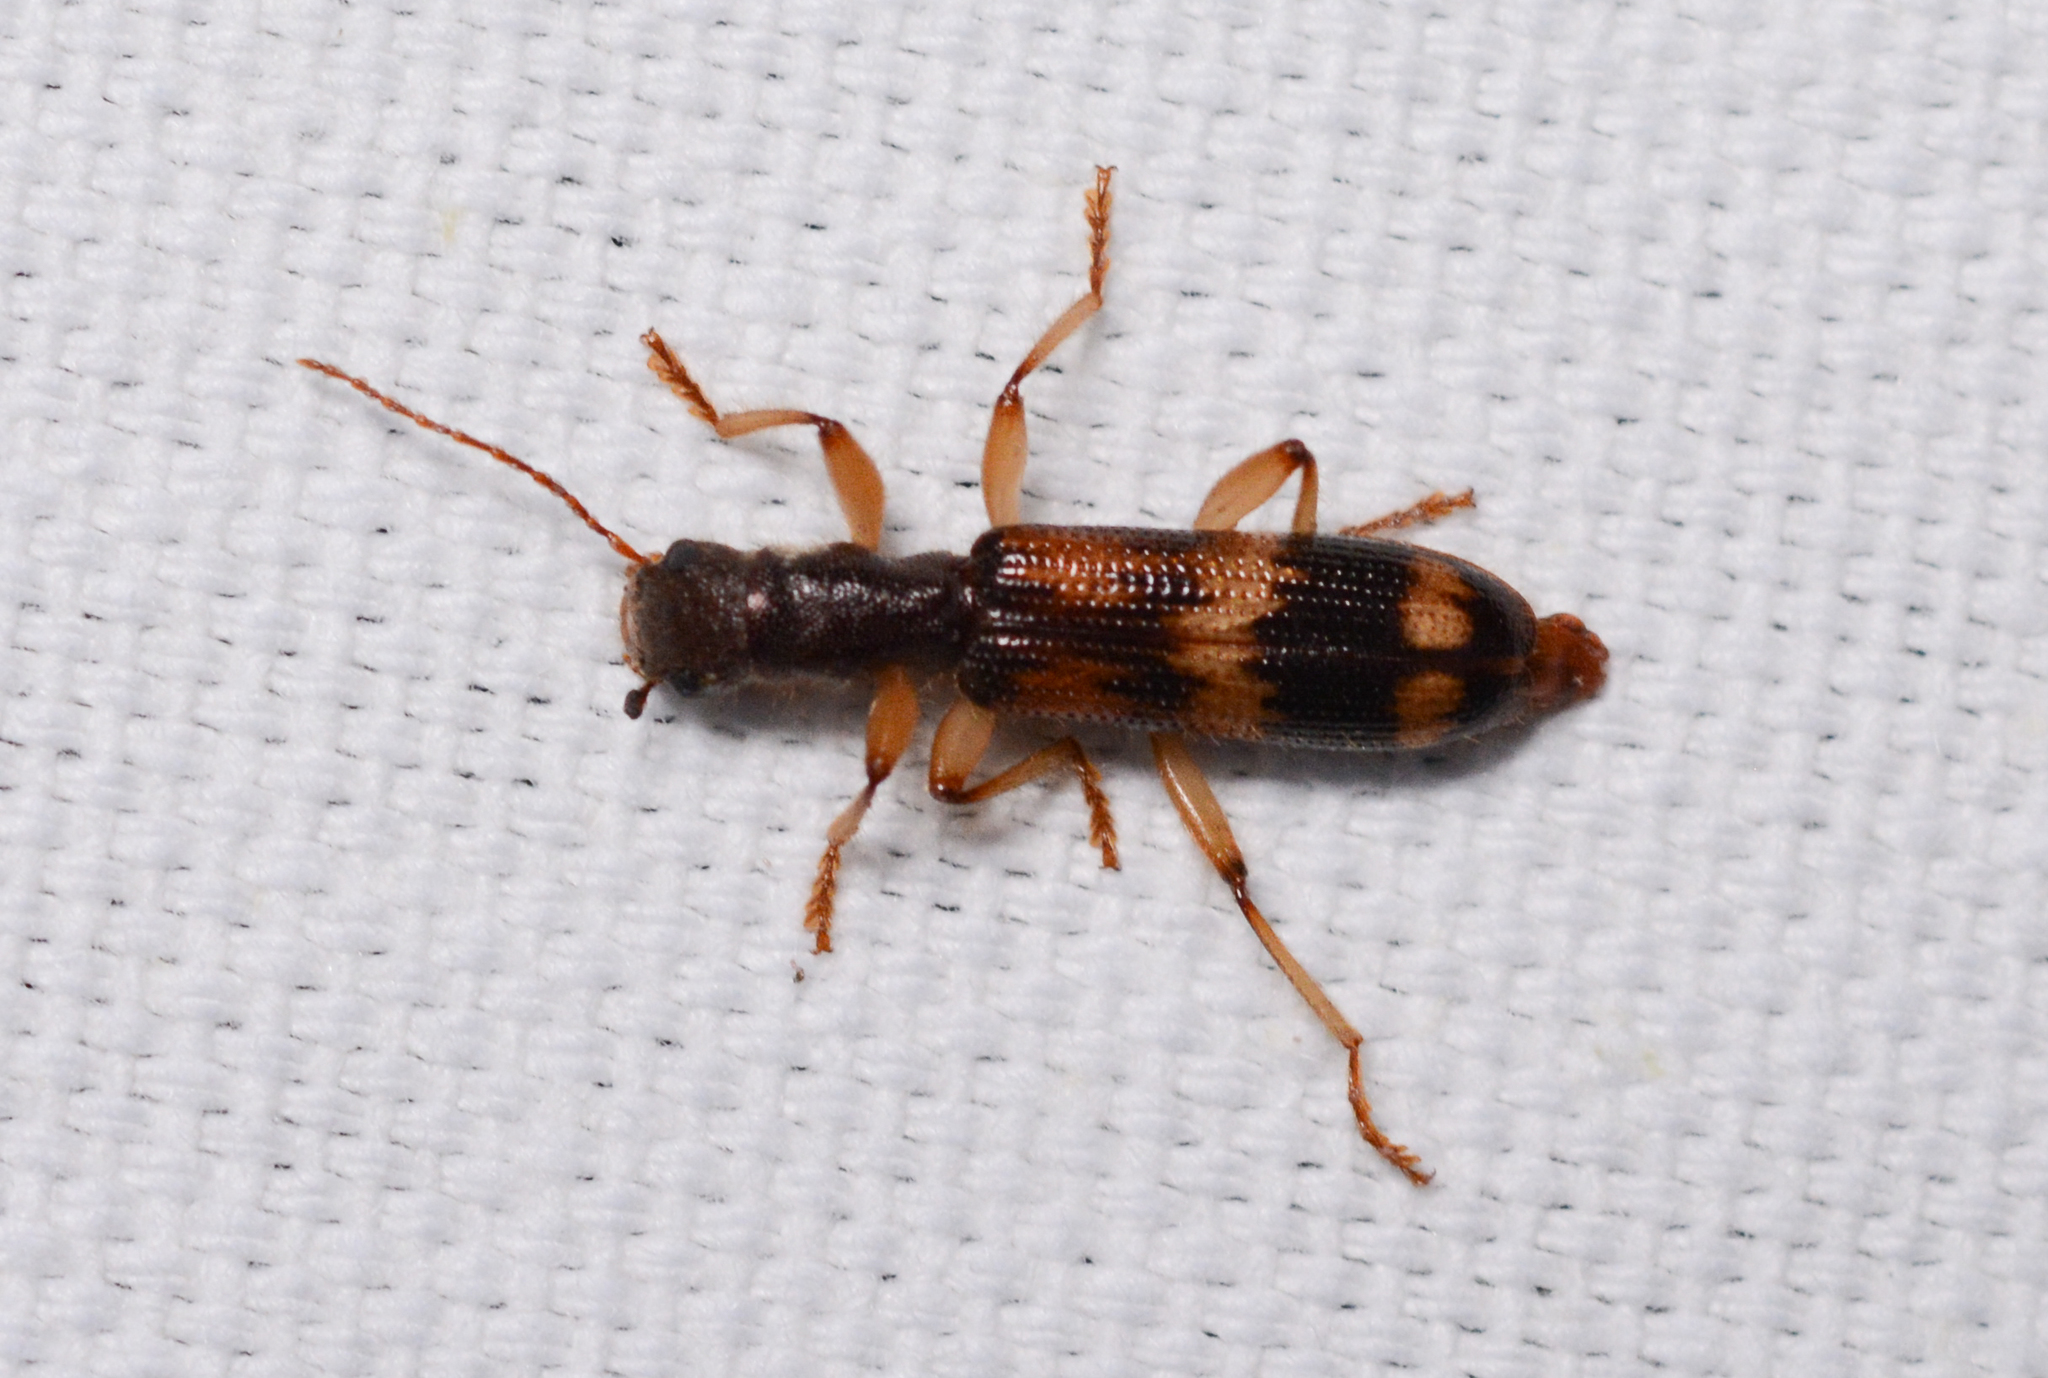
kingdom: Animalia
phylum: Arthropoda
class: Insecta
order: Coleoptera
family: Cleridae
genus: Cymatodera
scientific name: Cymatodera undulata
